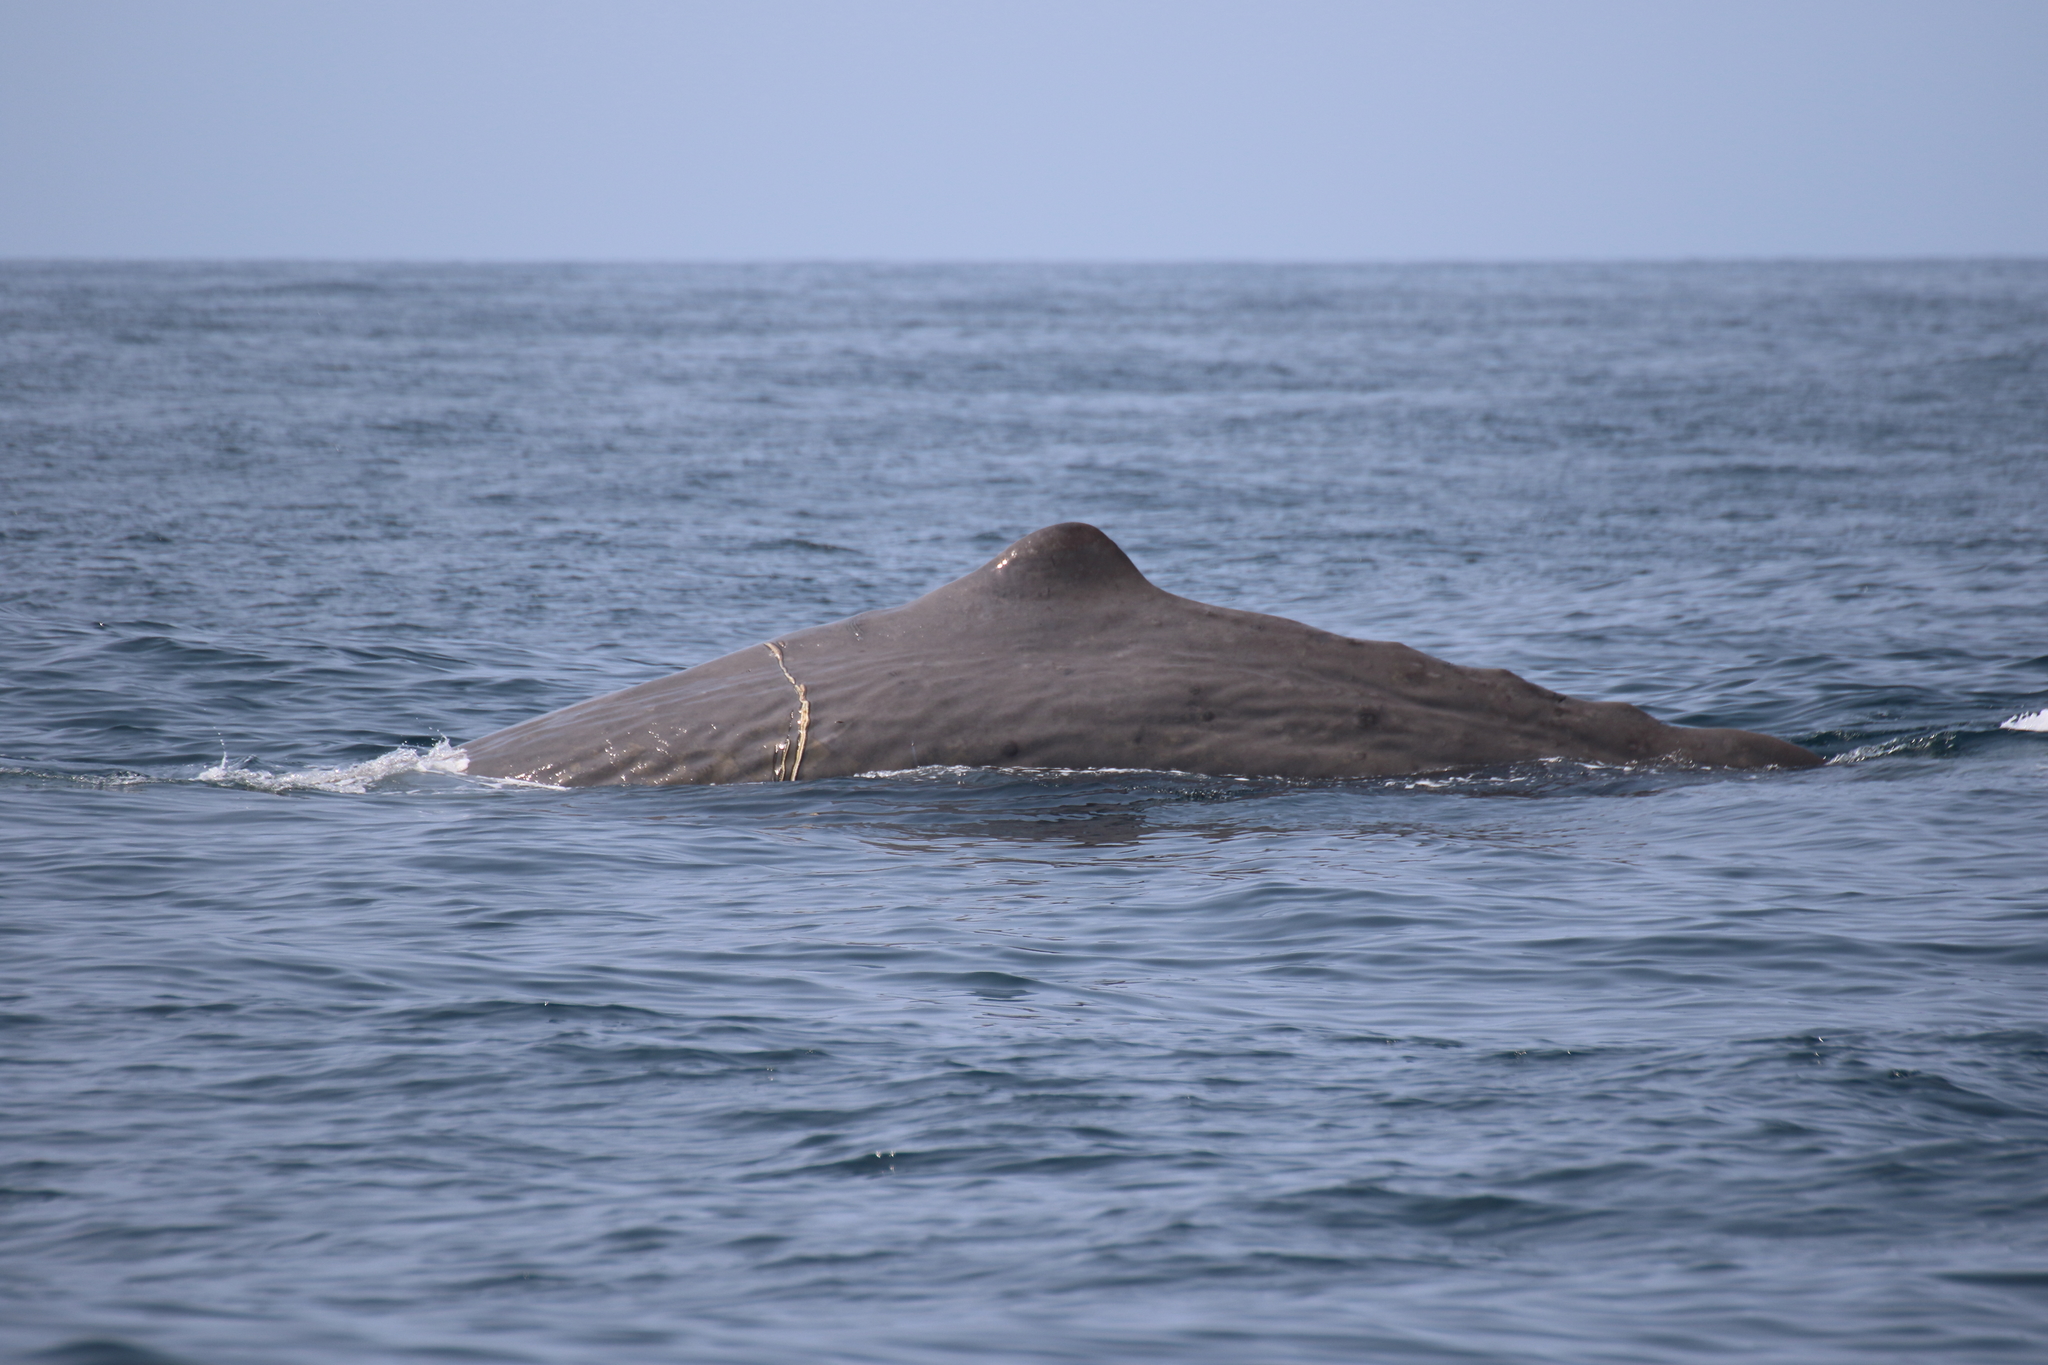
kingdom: Animalia
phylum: Chordata
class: Mammalia
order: Cetacea
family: Physeteridae
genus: Physeter
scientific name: Physeter macrocephalus
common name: Sperm whale
